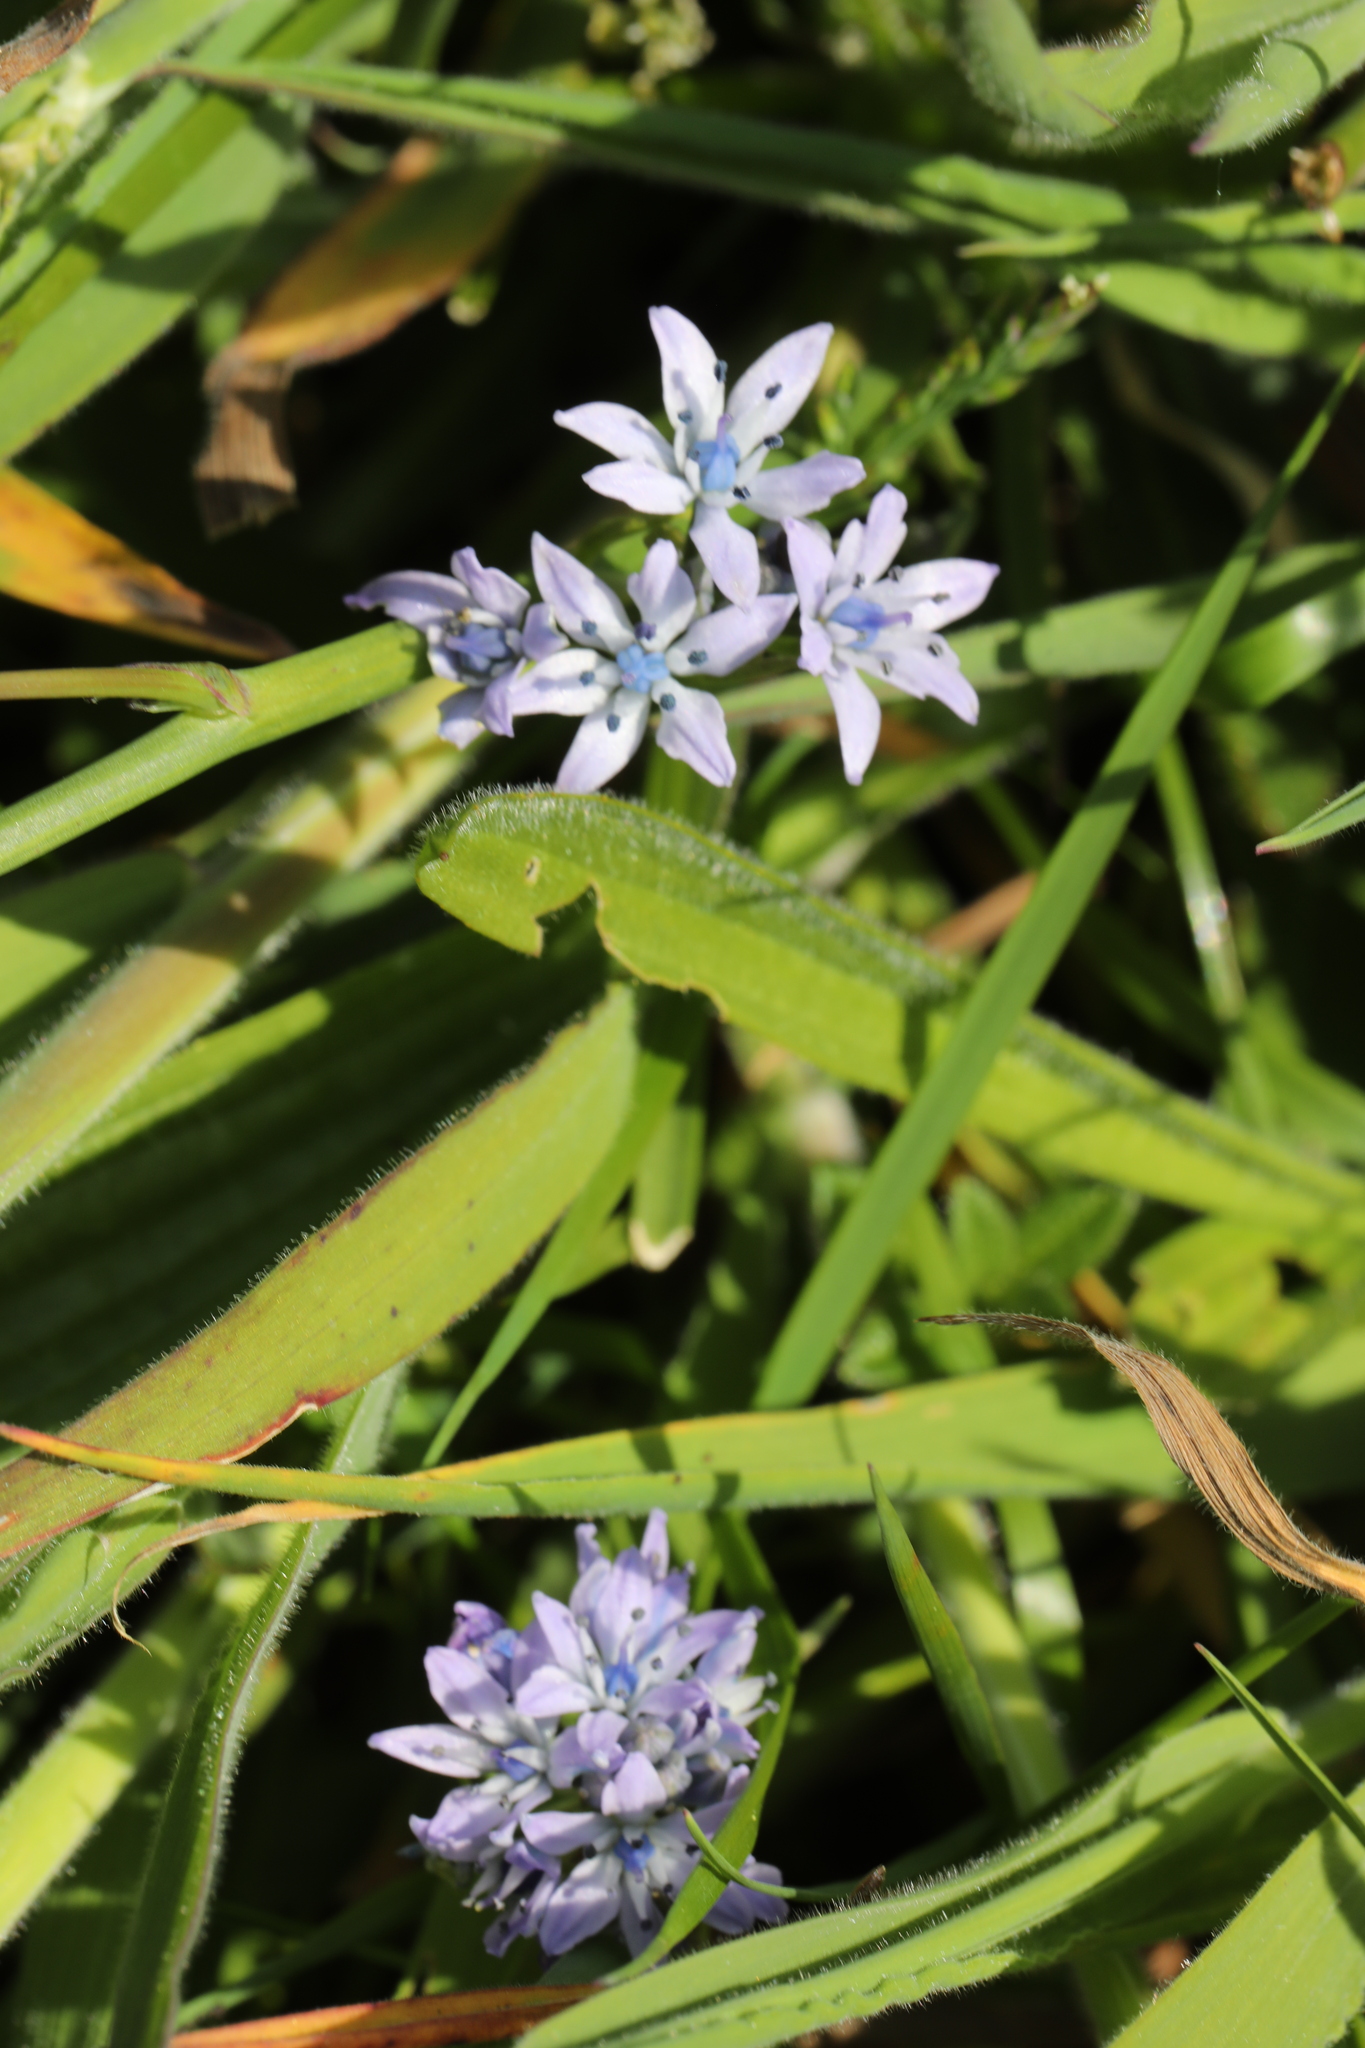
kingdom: Plantae
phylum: Tracheophyta
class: Liliopsida
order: Asparagales
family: Asparagaceae
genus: Scilla
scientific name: Scilla verna
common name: Spring squill
